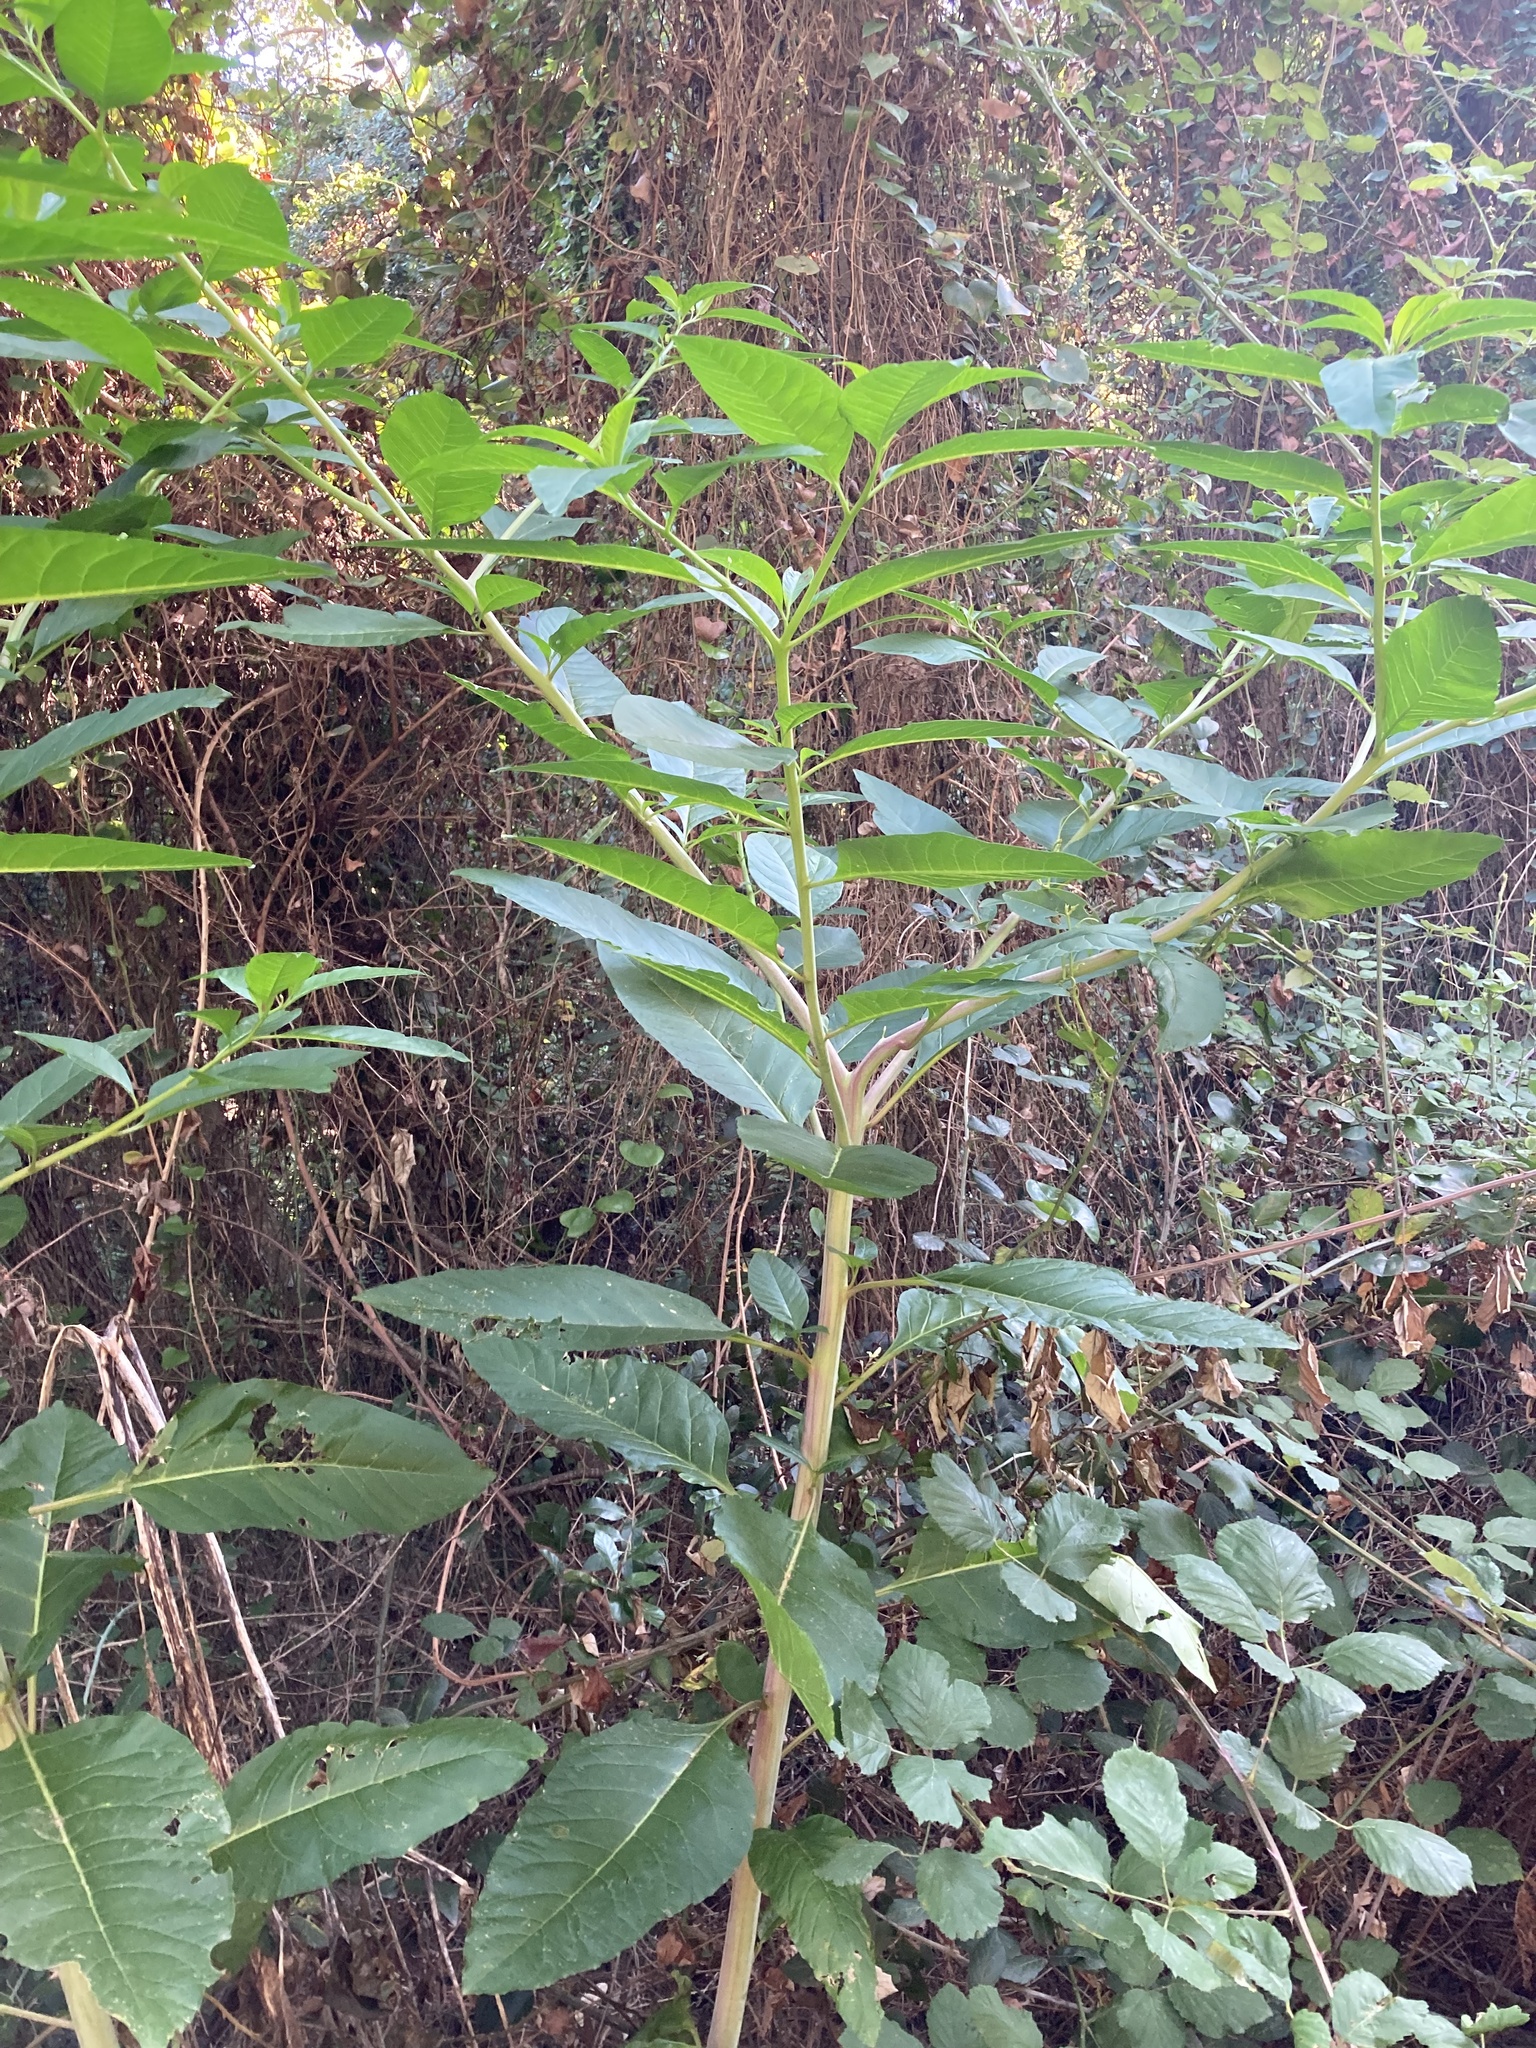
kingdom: Plantae
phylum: Tracheophyta
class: Magnoliopsida
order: Caryophyllales
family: Phytolaccaceae
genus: Phytolacca
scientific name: Phytolacca americana
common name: American pokeweed
